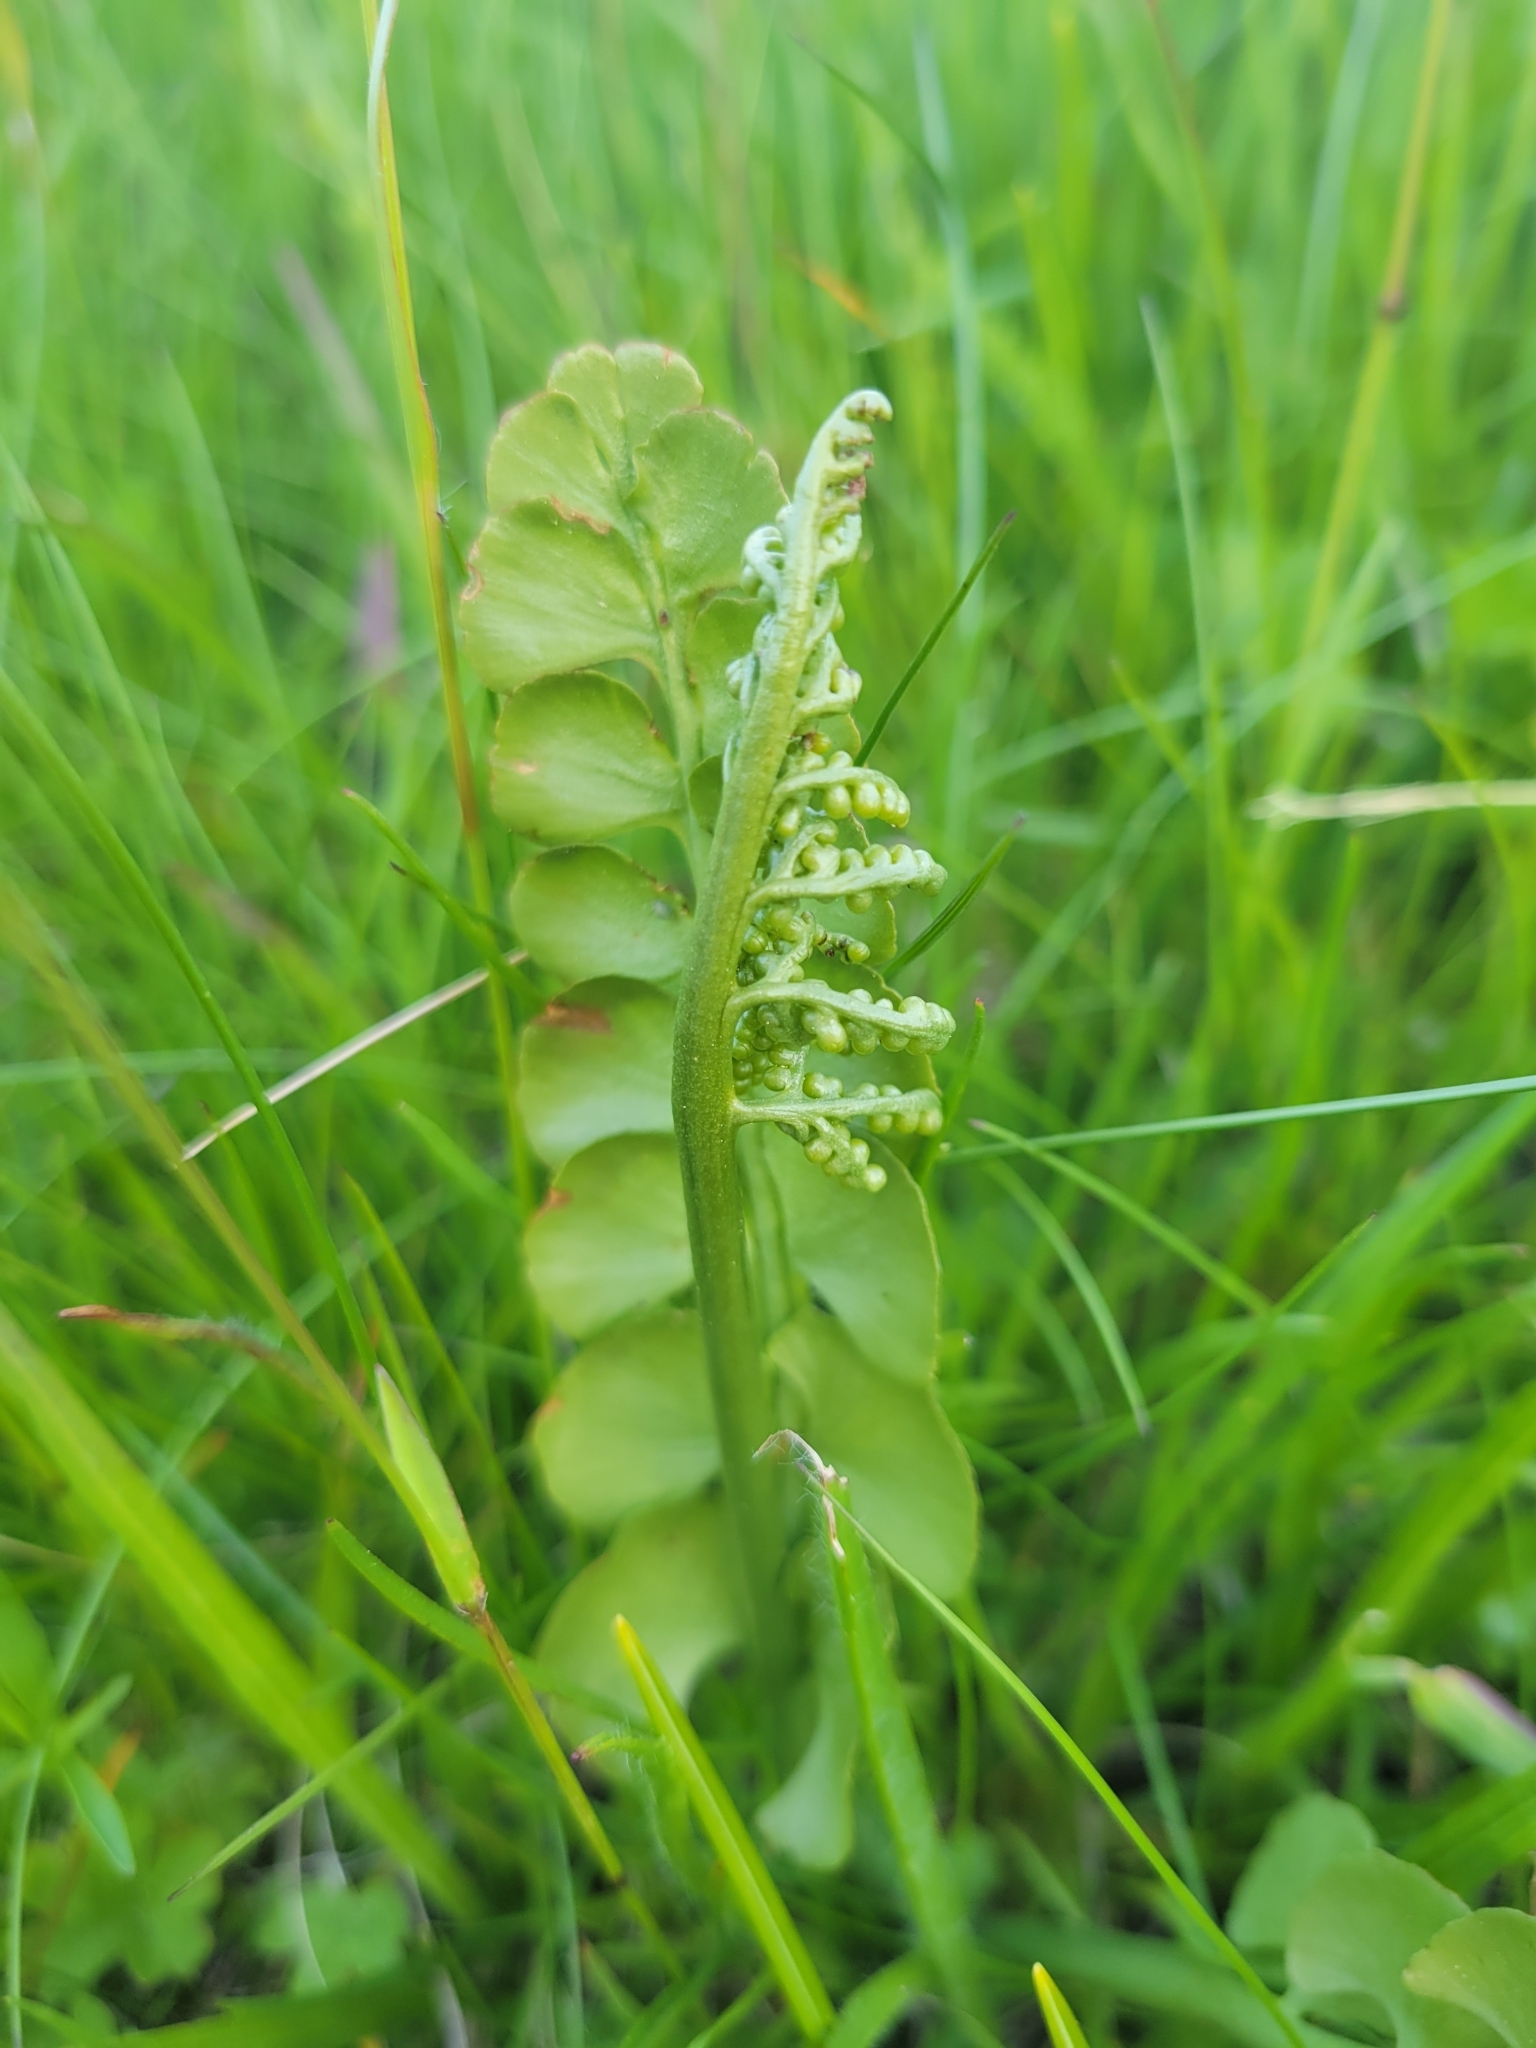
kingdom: Plantae
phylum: Tracheophyta
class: Polypodiopsida
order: Ophioglossales
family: Ophioglossaceae
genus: Botrychium
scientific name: Botrychium lunaria
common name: Moonwort
